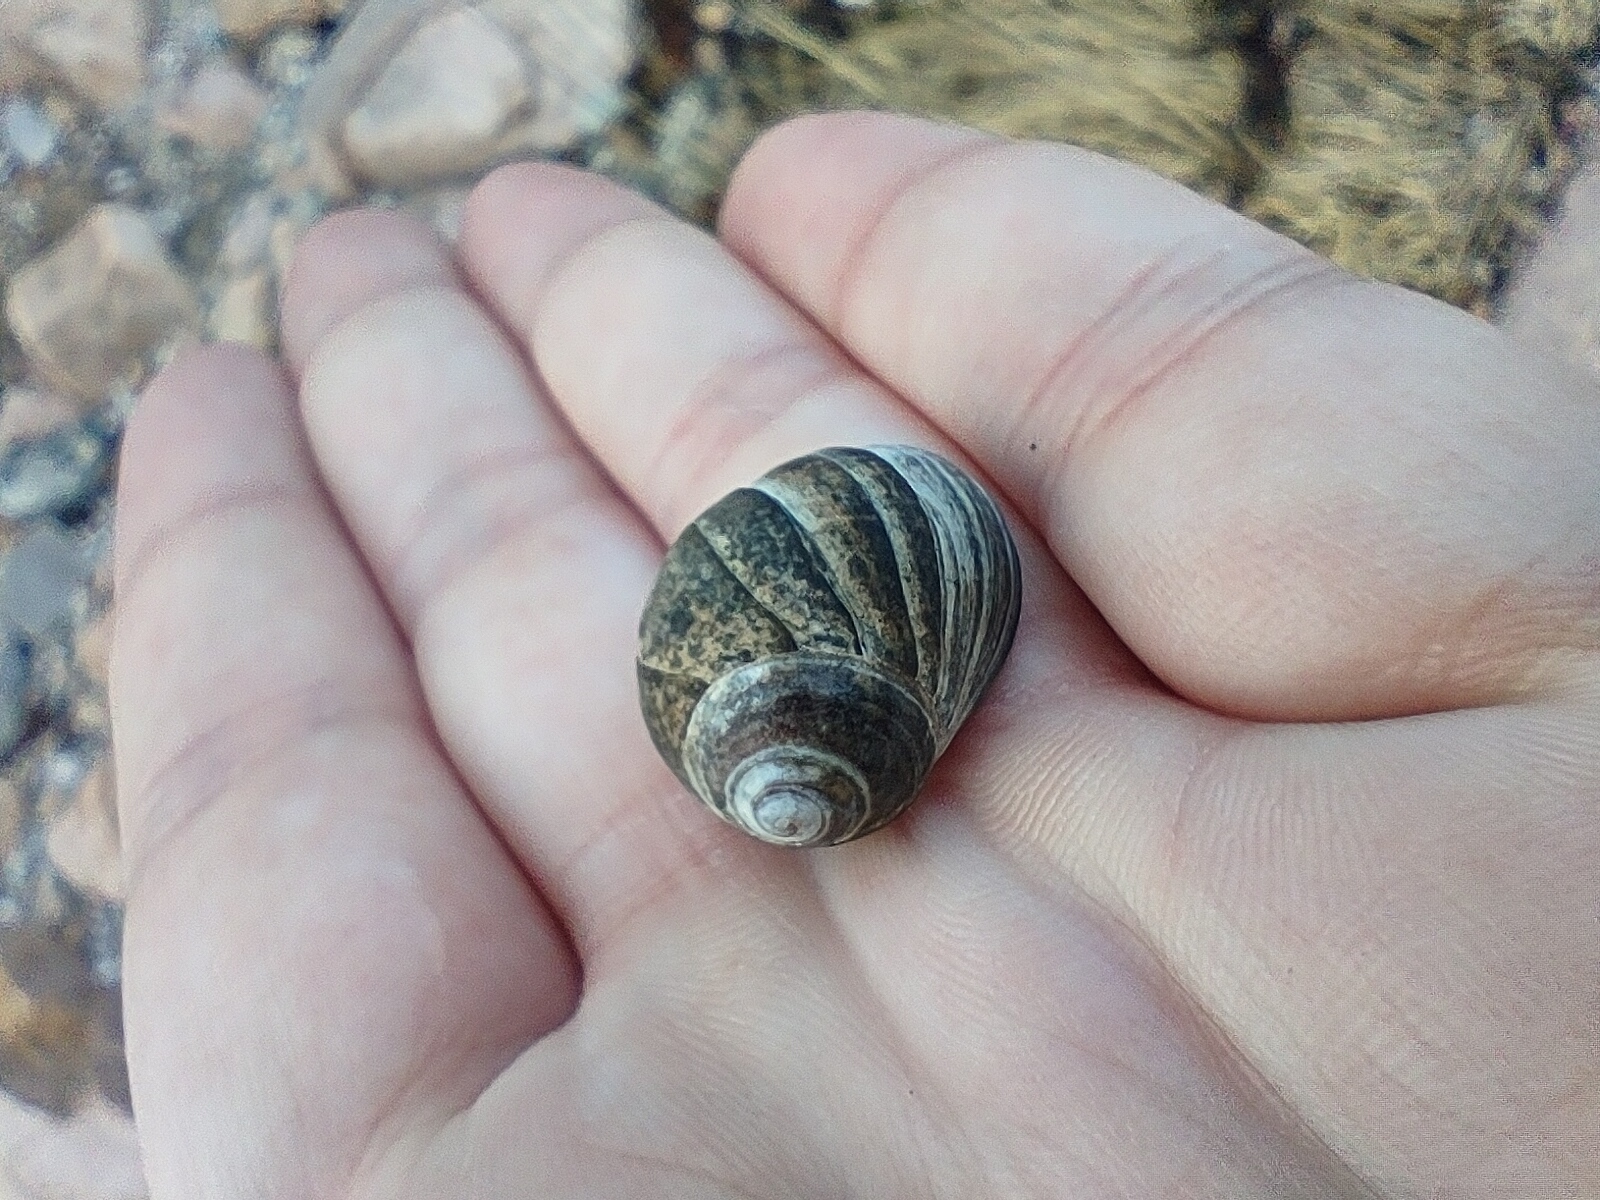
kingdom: Animalia
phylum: Mollusca
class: Gastropoda
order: Littorinimorpha
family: Littorinidae
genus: Littorina
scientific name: Littorina littorea
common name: Common periwinkle
